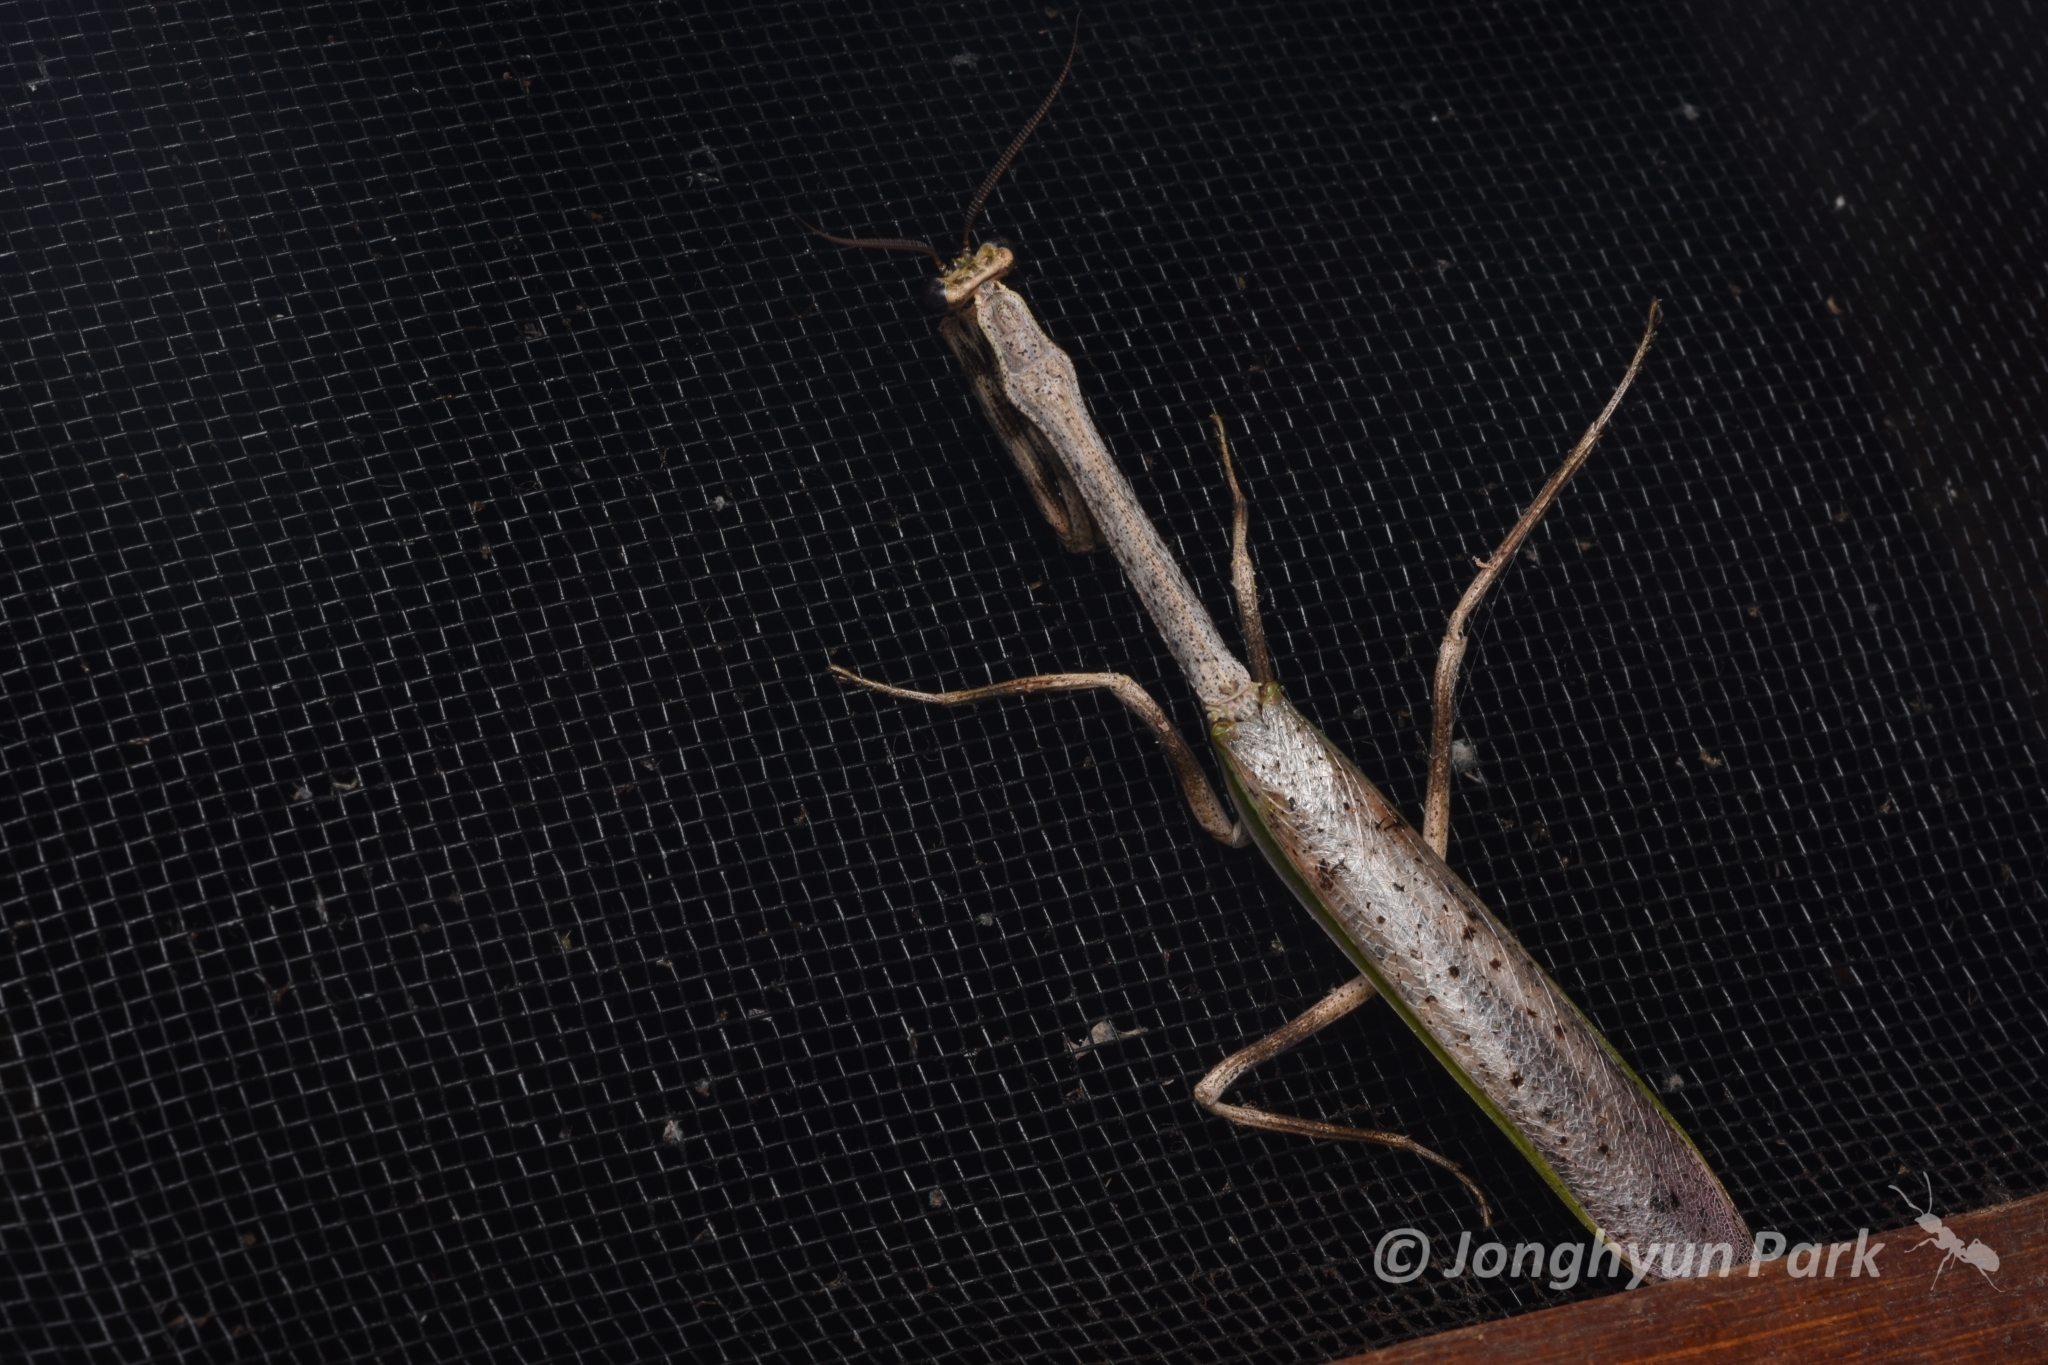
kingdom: Animalia
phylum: Arthropoda
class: Insecta
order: Mantodea
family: Mantidae
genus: Pseudovates
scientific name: Pseudovates brasiliensis
